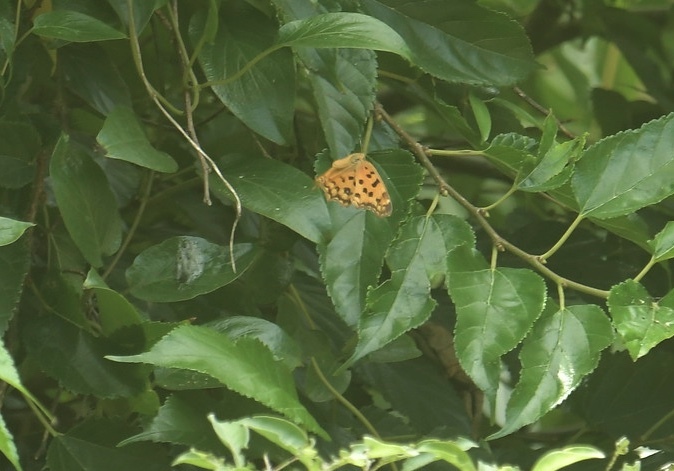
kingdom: Animalia
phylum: Arthropoda
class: Insecta
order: Lepidoptera
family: Nymphalidae
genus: Polygonia
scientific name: Polygonia c-aureum
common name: Asian comma
